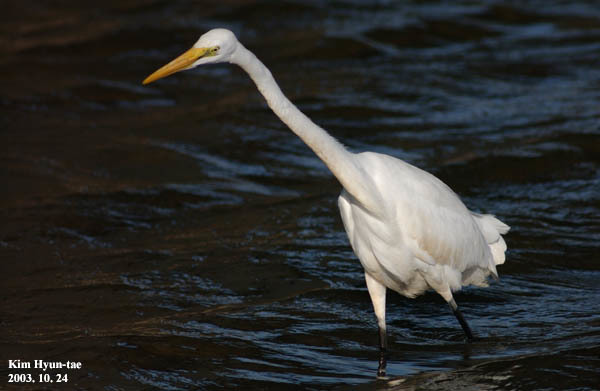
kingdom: Animalia
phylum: Chordata
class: Aves
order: Pelecaniformes
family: Ardeidae
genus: Ardea
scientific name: Ardea alba
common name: Great egret
